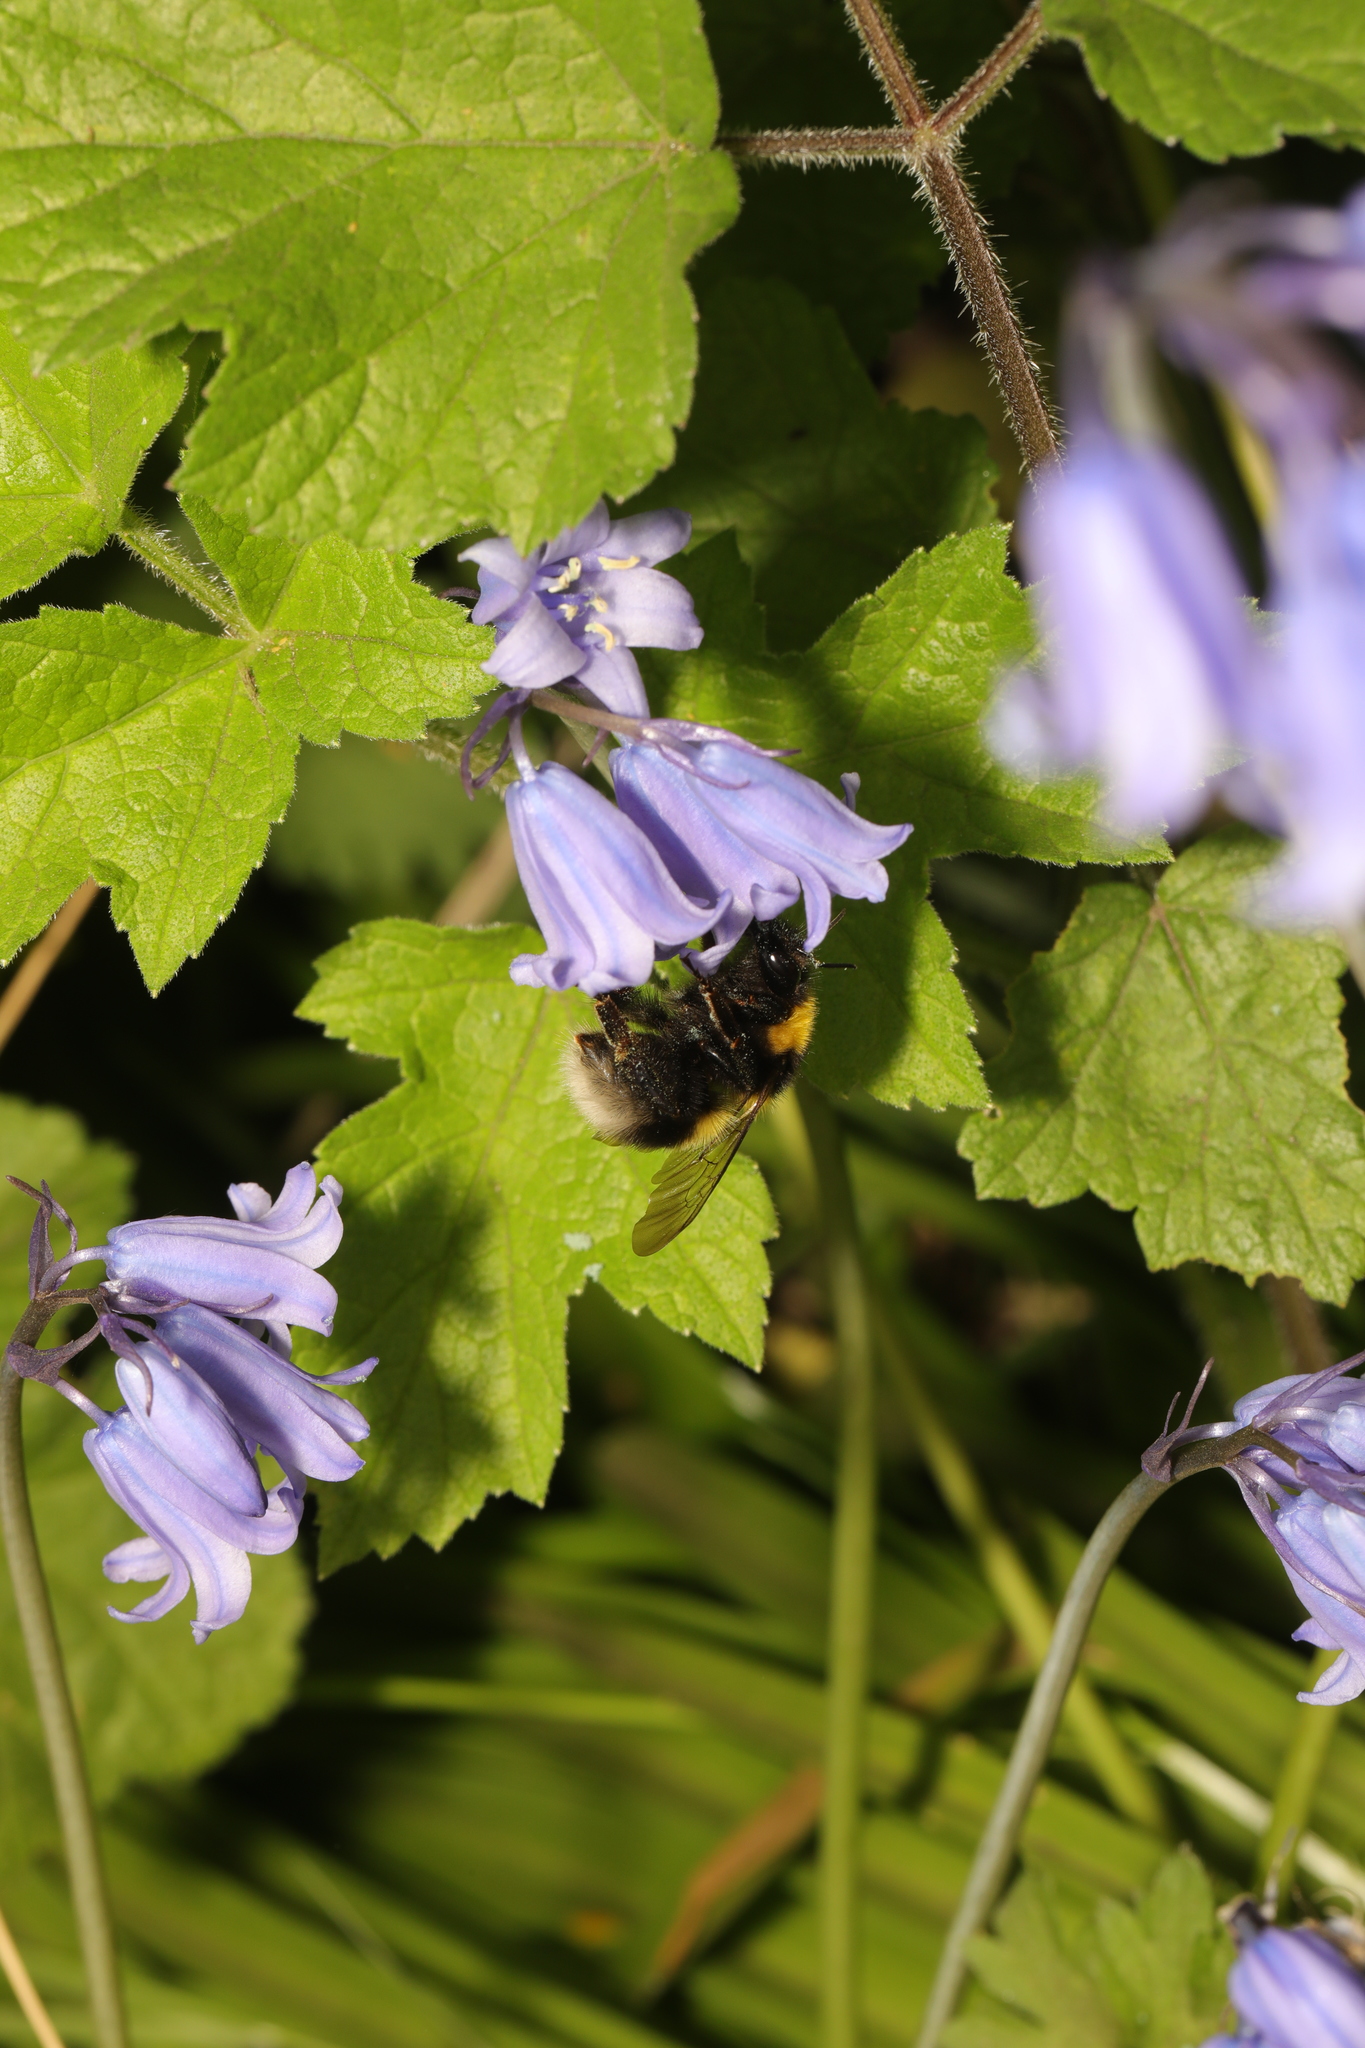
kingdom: Animalia
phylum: Arthropoda
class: Insecta
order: Hymenoptera
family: Apidae
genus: Bombus
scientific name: Bombus hortorum
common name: Garden bumblebee
